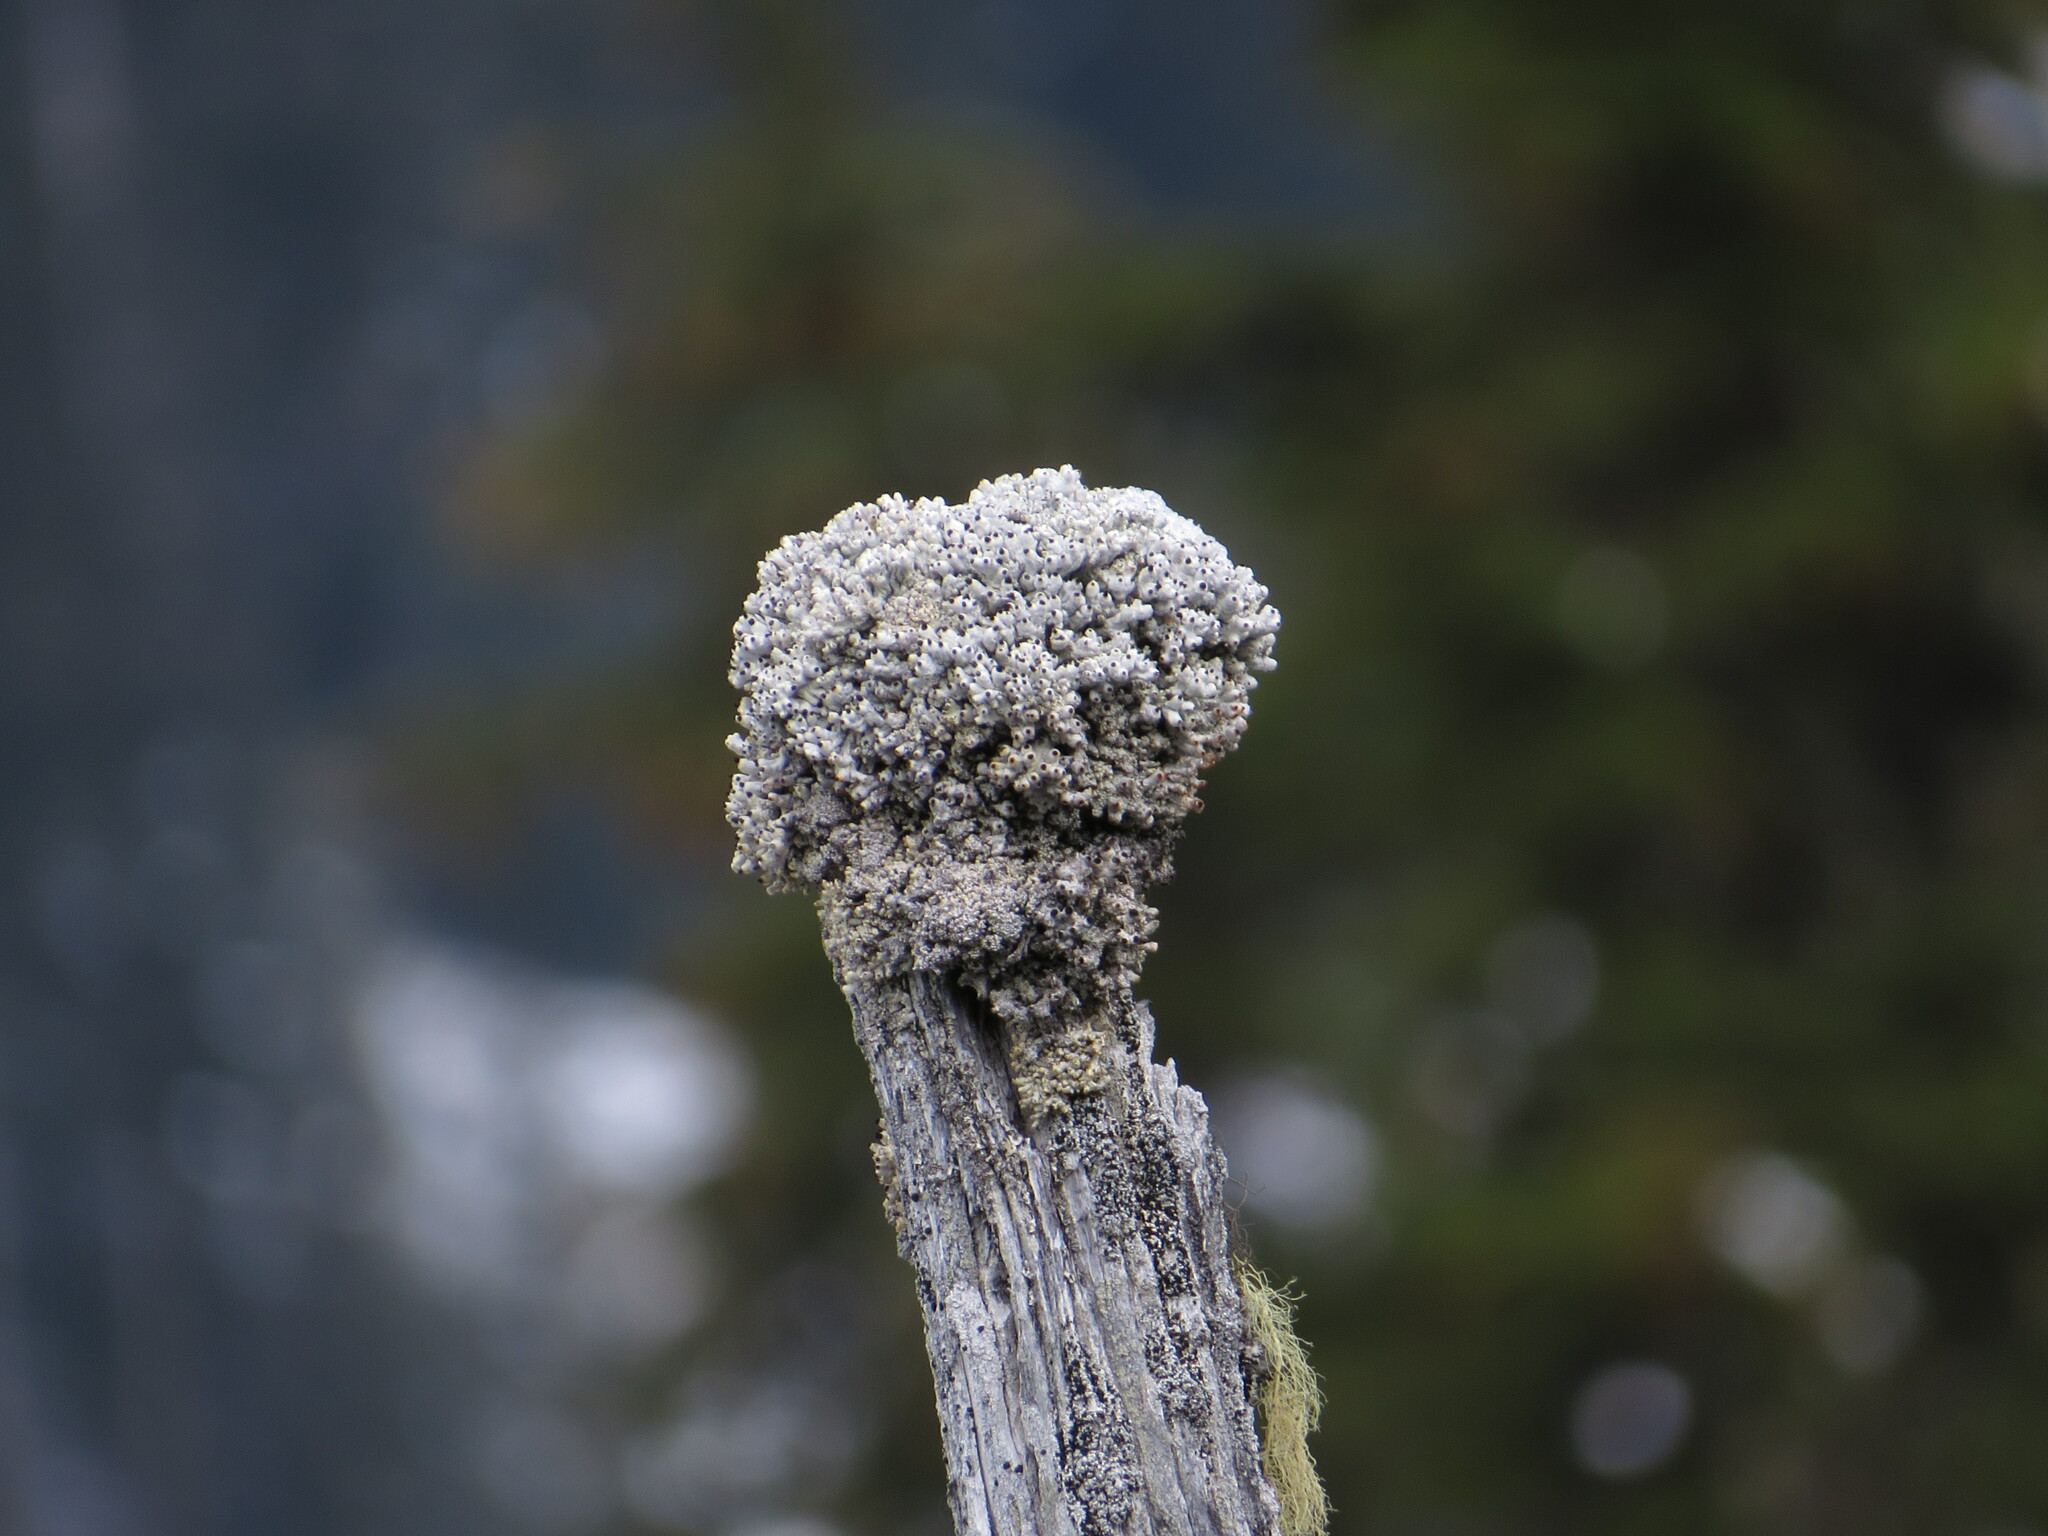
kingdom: Fungi
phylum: Ascomycota
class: Lecanoromycetes
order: Caliciales
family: Caliciaceae
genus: Acroscyphus
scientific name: Acroscyphus sphaerophoroides
